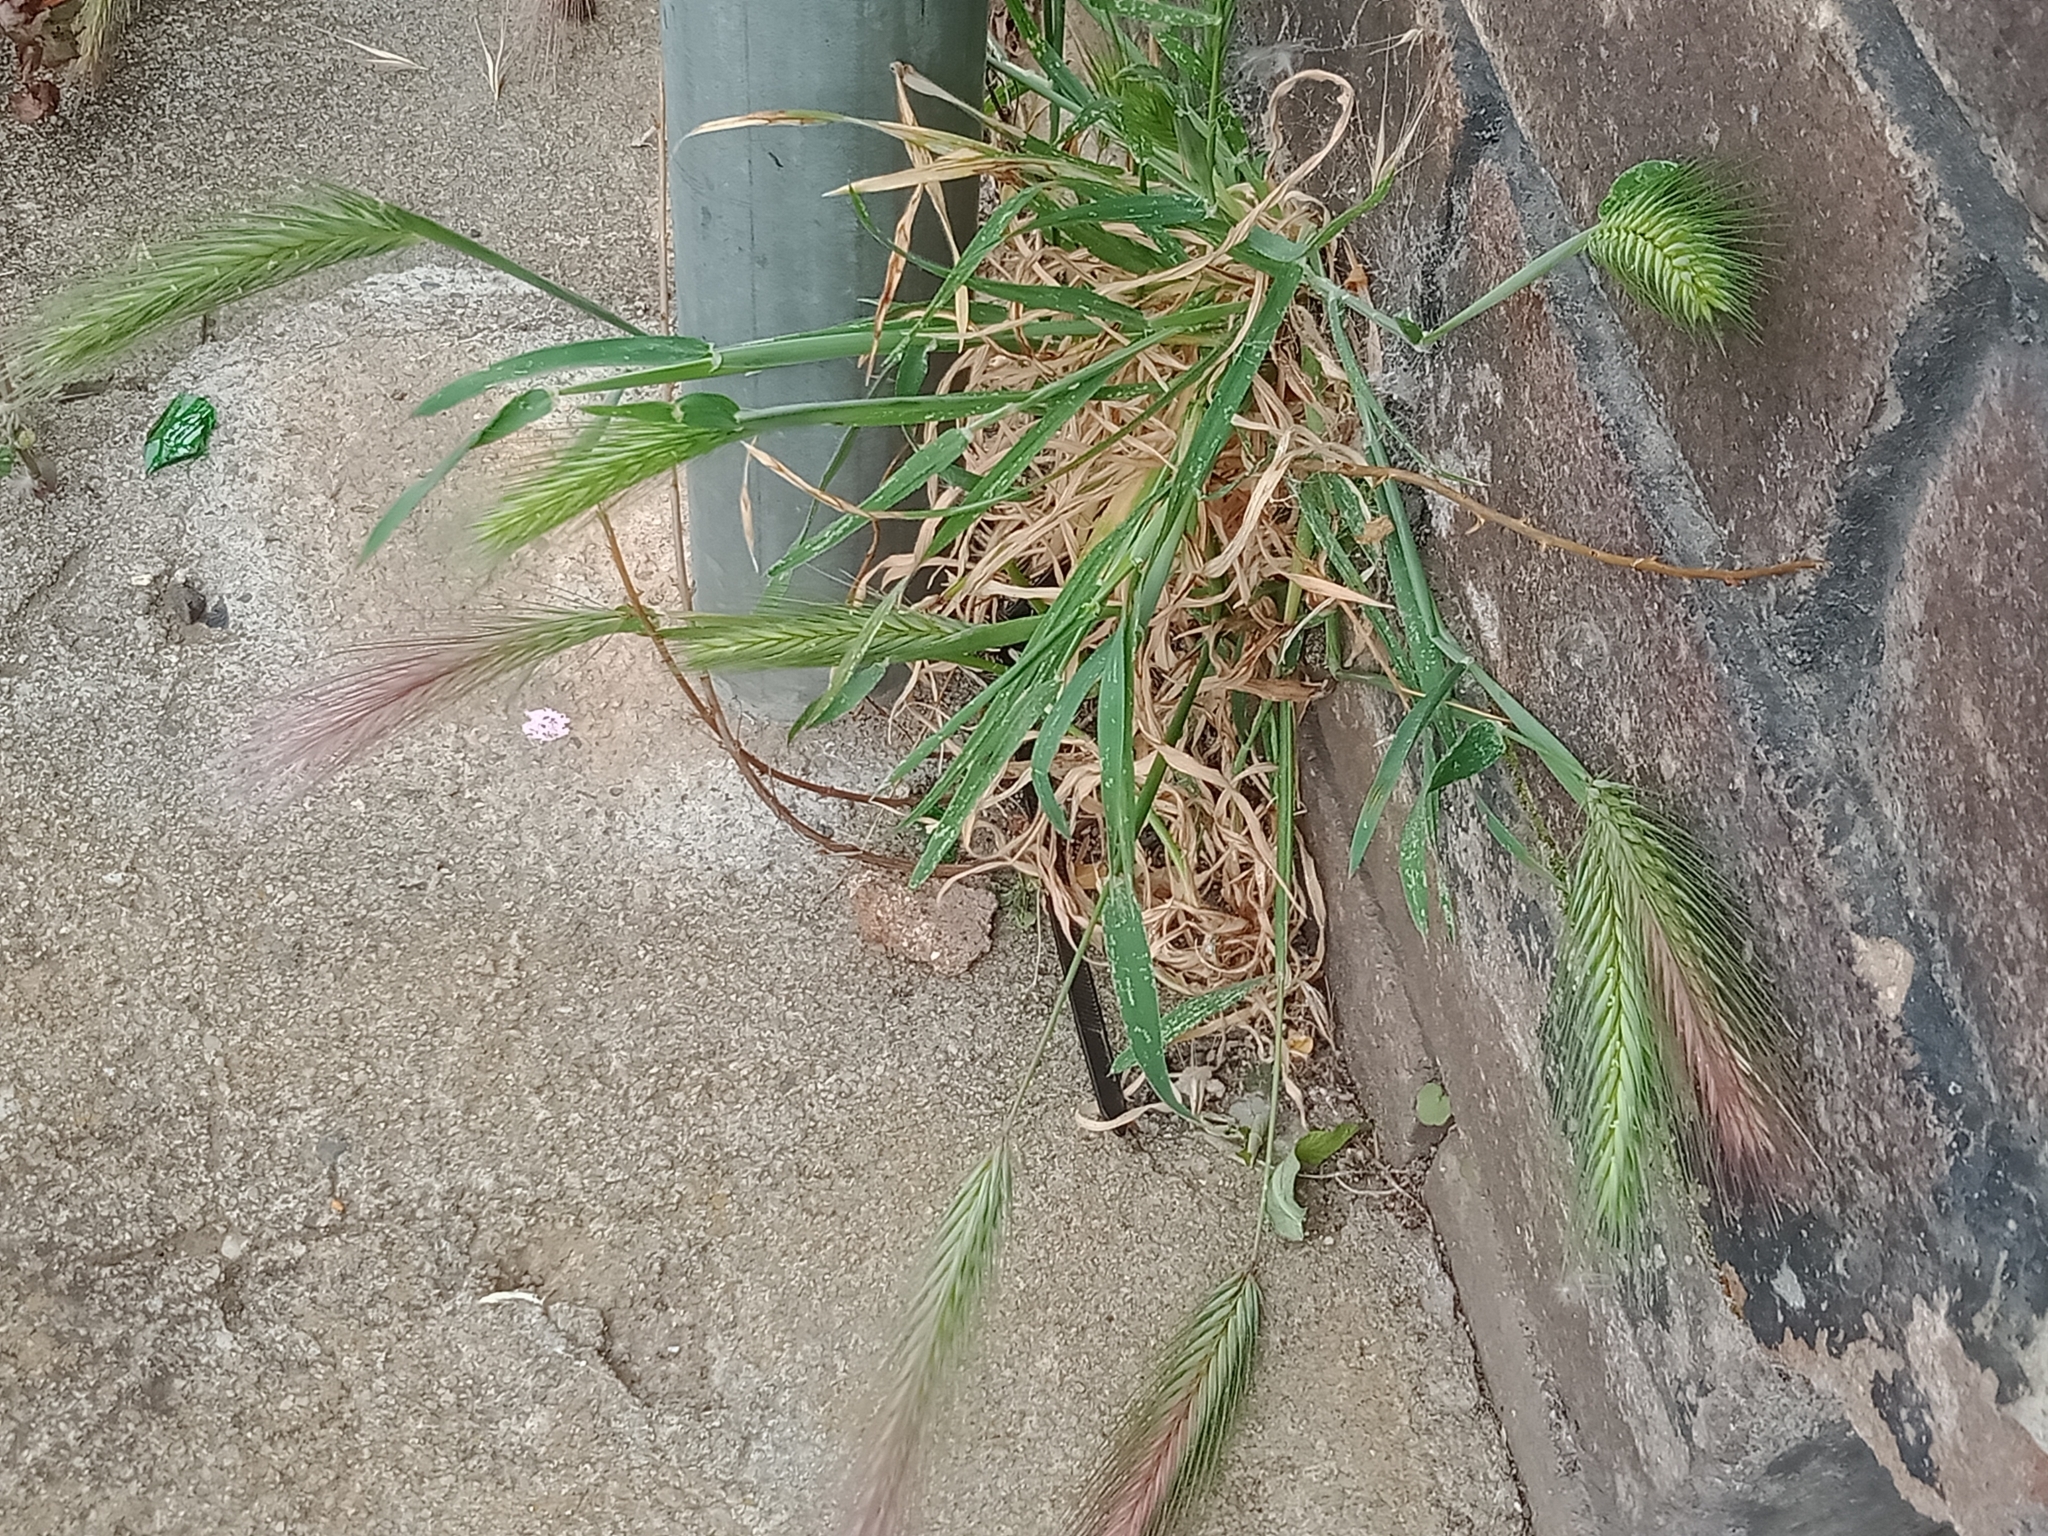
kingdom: Plantae
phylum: Tracheophyta
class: Liliopsida
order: Poales
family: Poaceae
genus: Hordeum
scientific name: Hordeum murinum
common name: Wall barley
